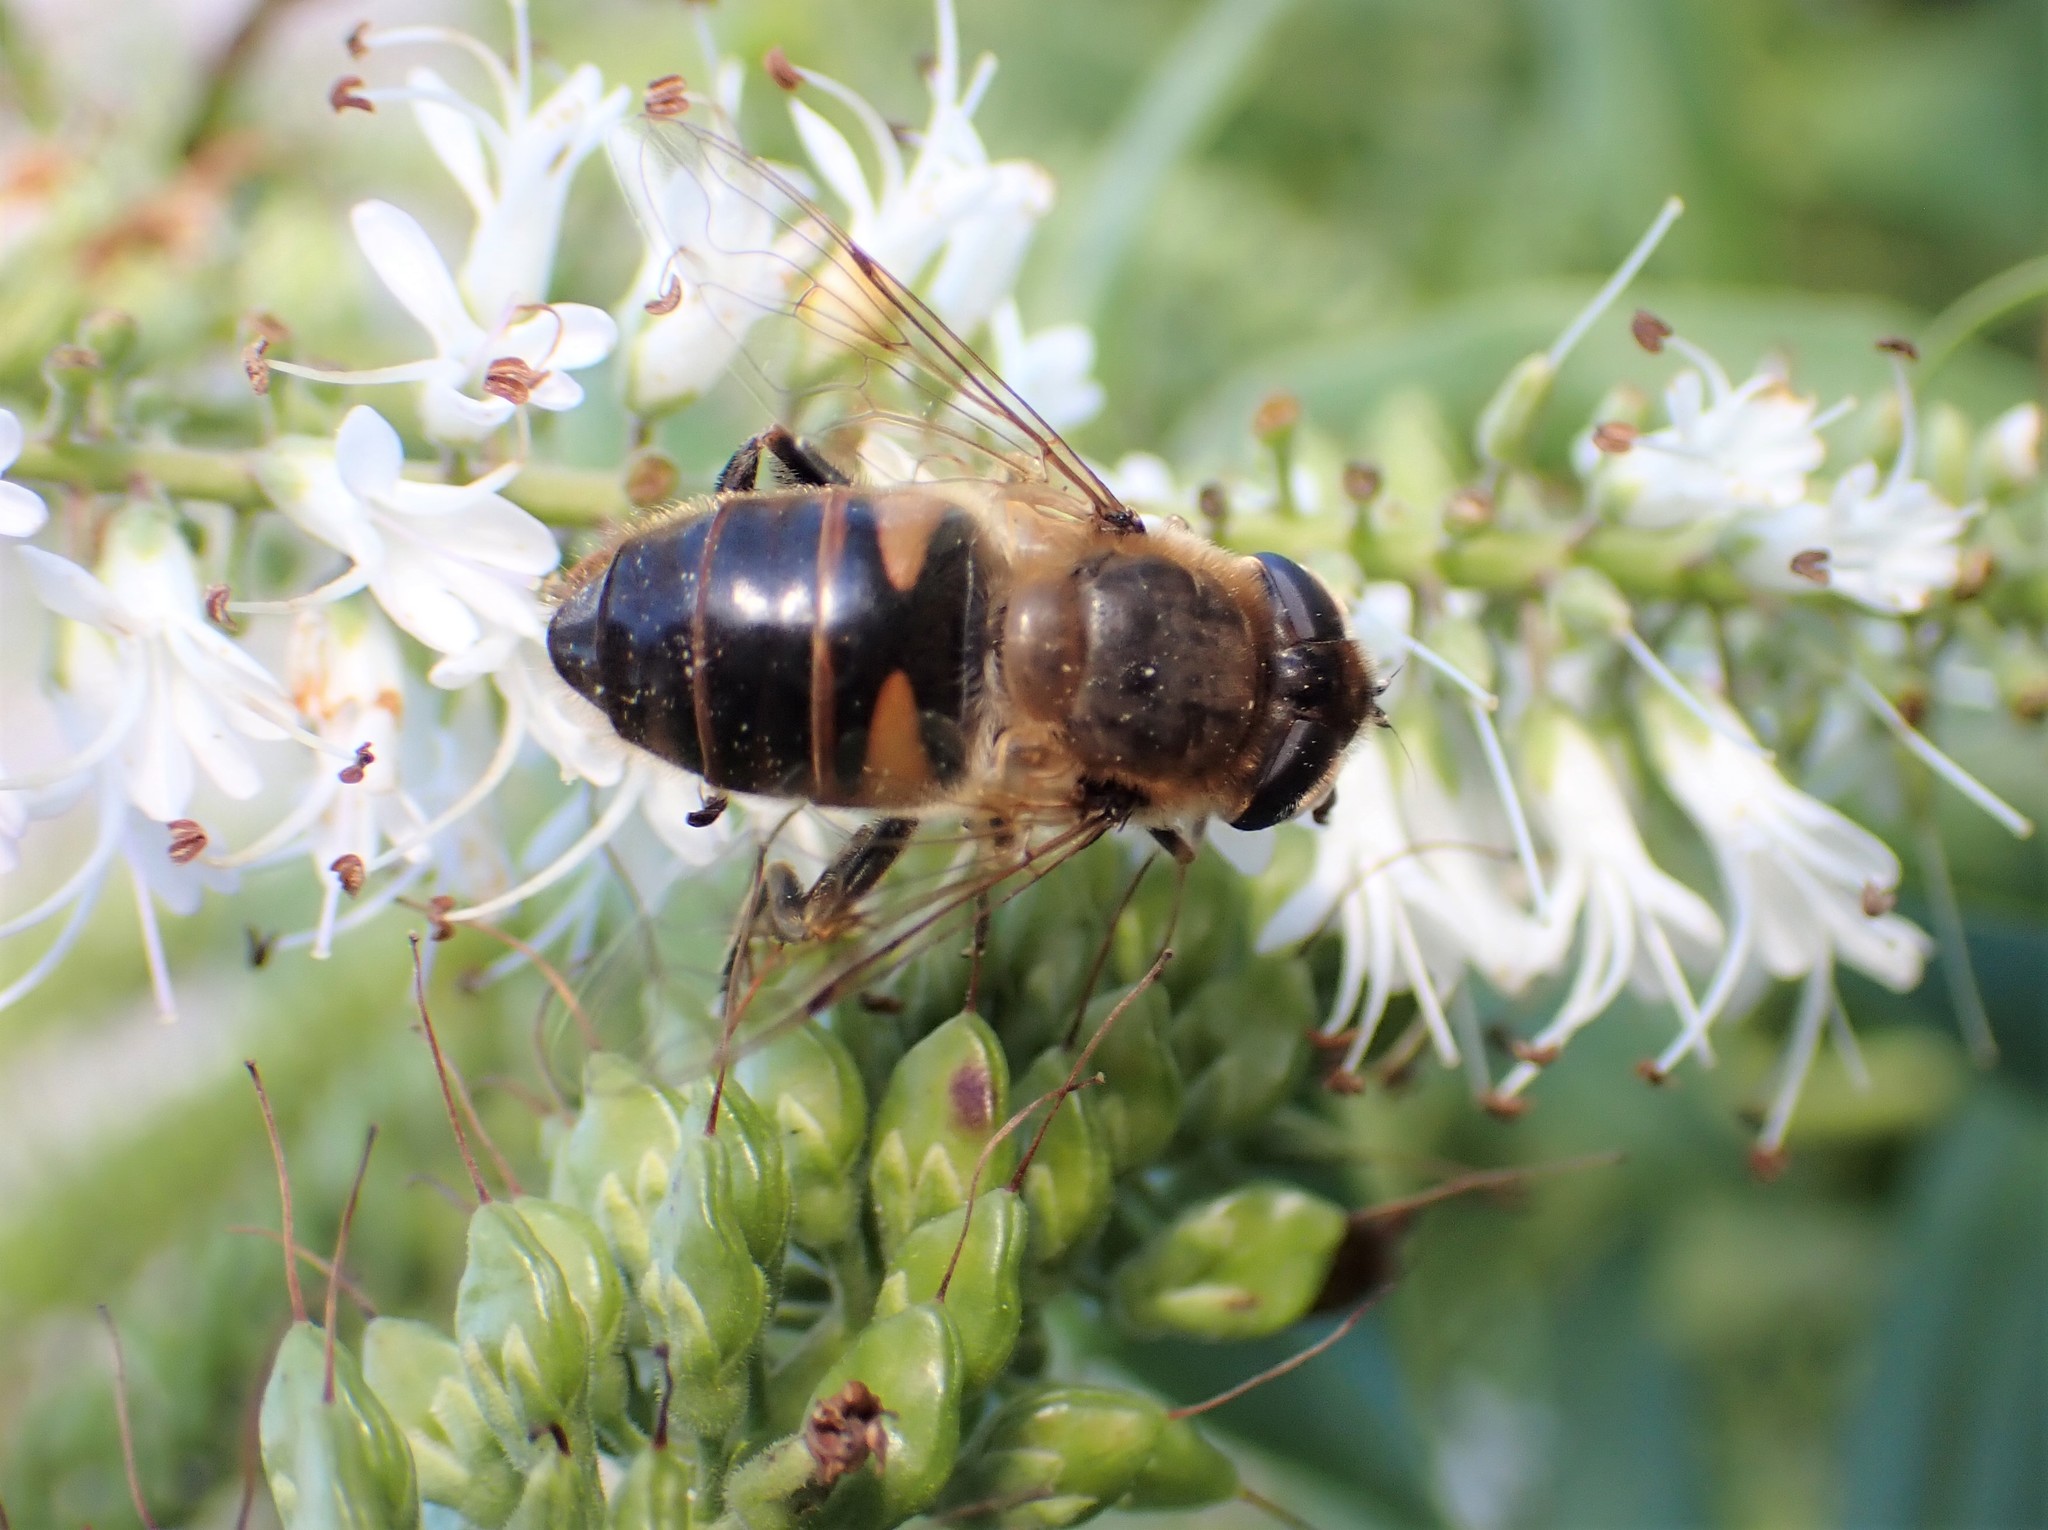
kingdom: Animalia
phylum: Arthropoda
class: Insecta
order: Diptera
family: Syrphidae
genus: Eristalis
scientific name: Eristalis tenax
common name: Drone fly
